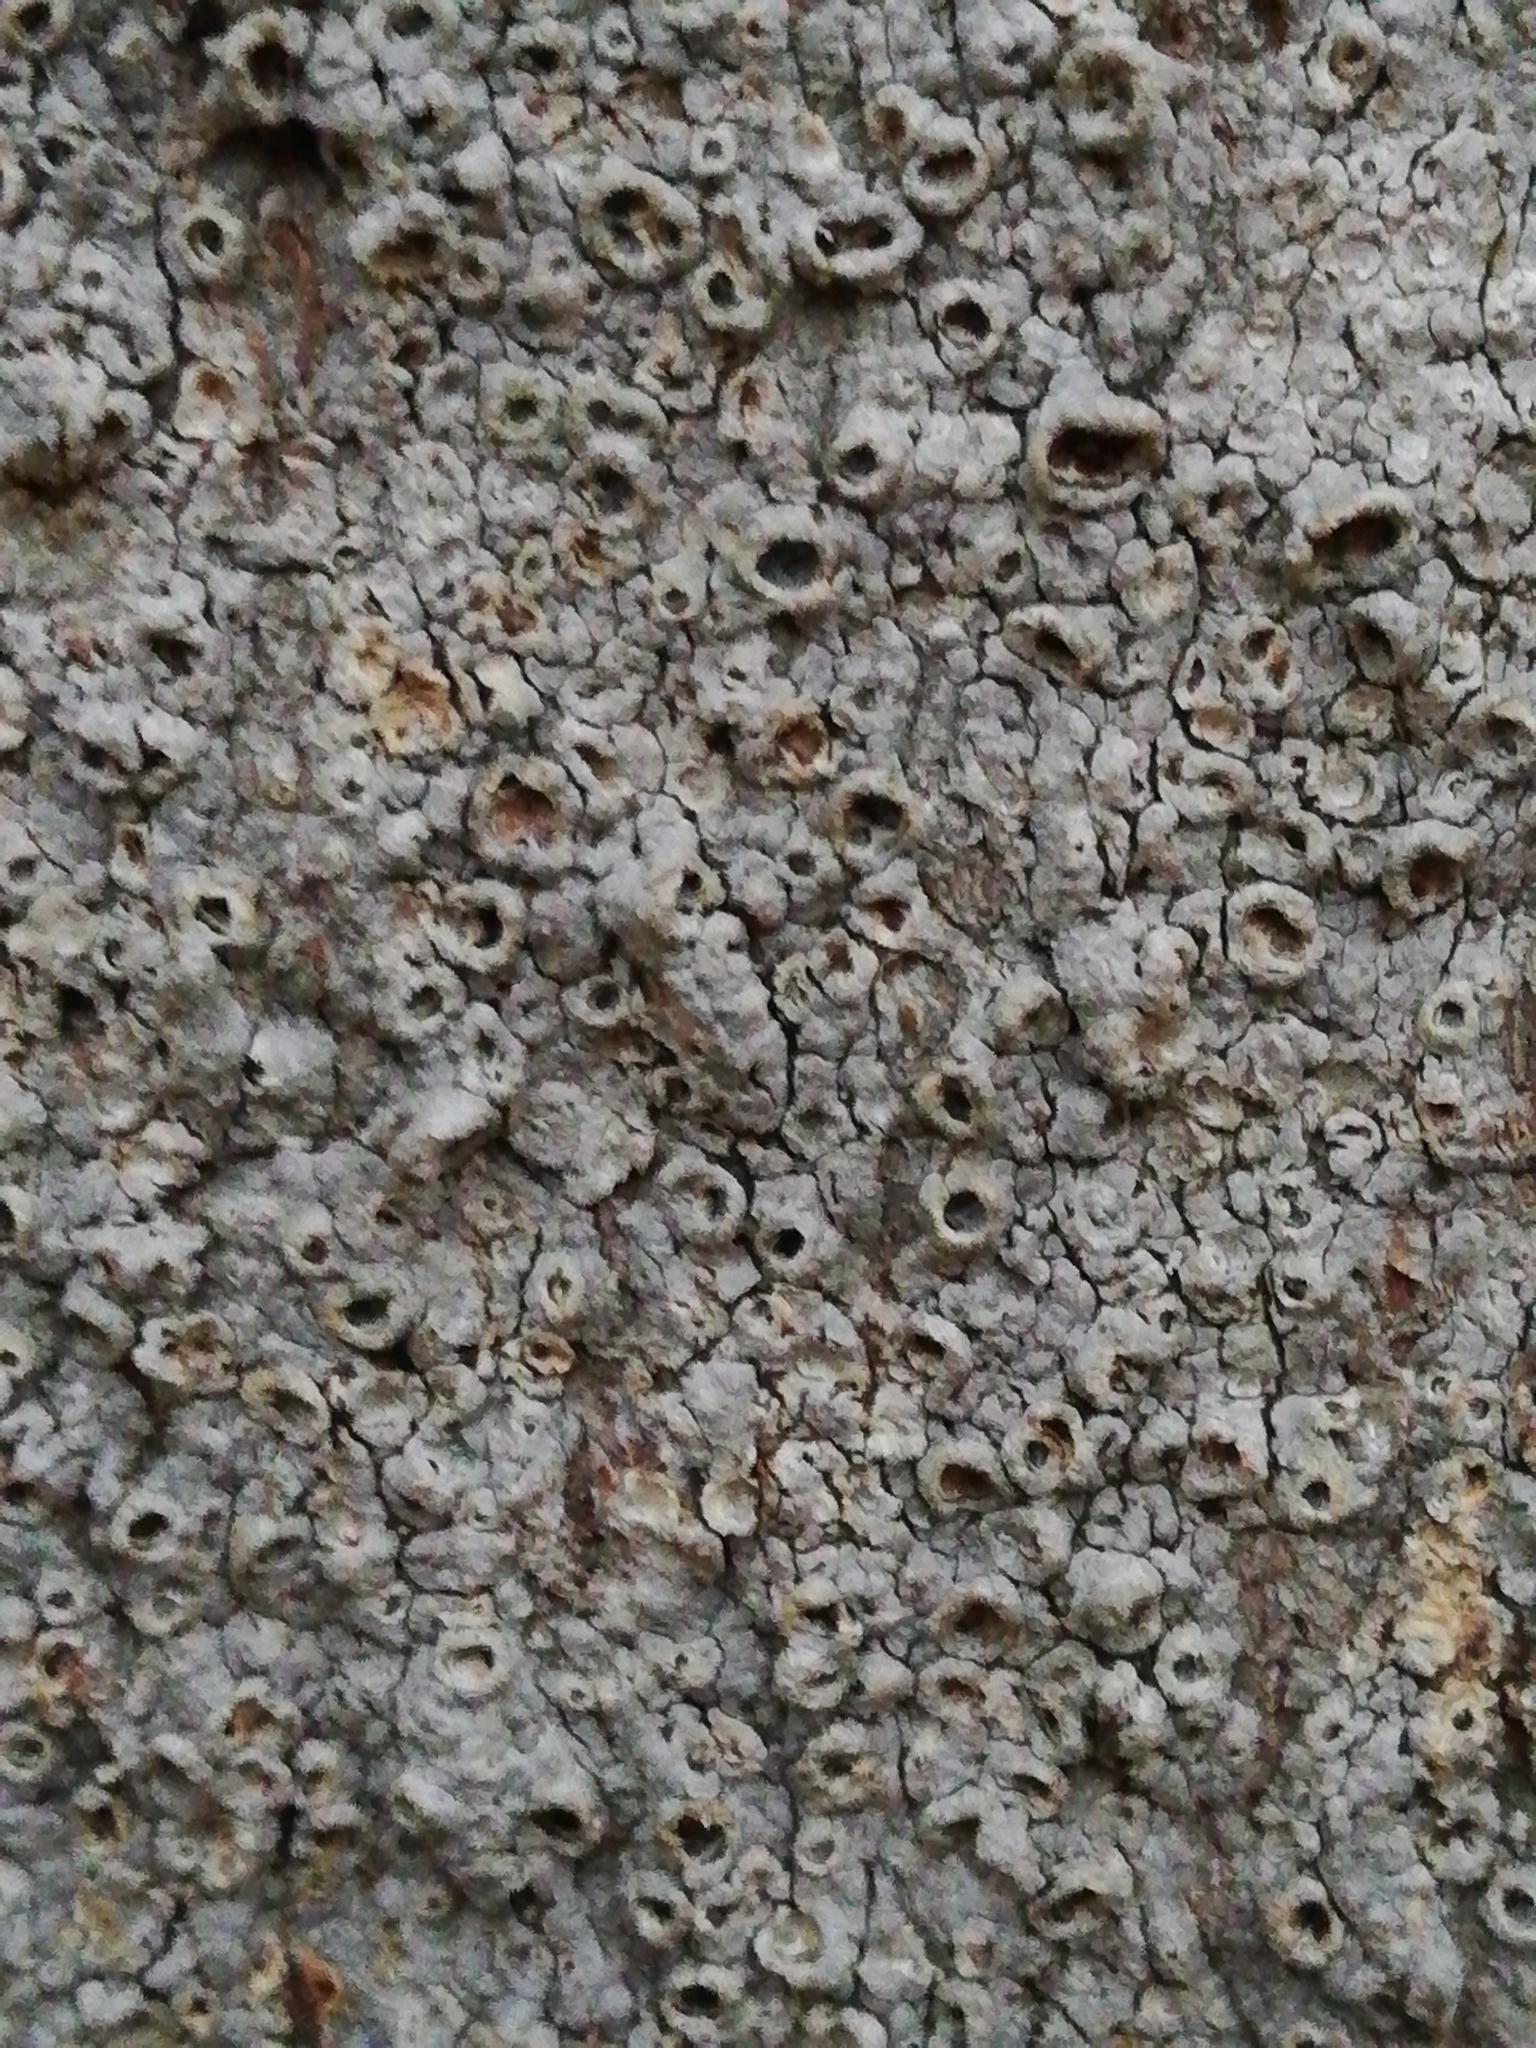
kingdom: Fungi
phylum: Ascomycota
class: Lecanoromycetes
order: Ostropales
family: Graphidaceae
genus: Thelotrema
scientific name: Thelotrema lepadinum
